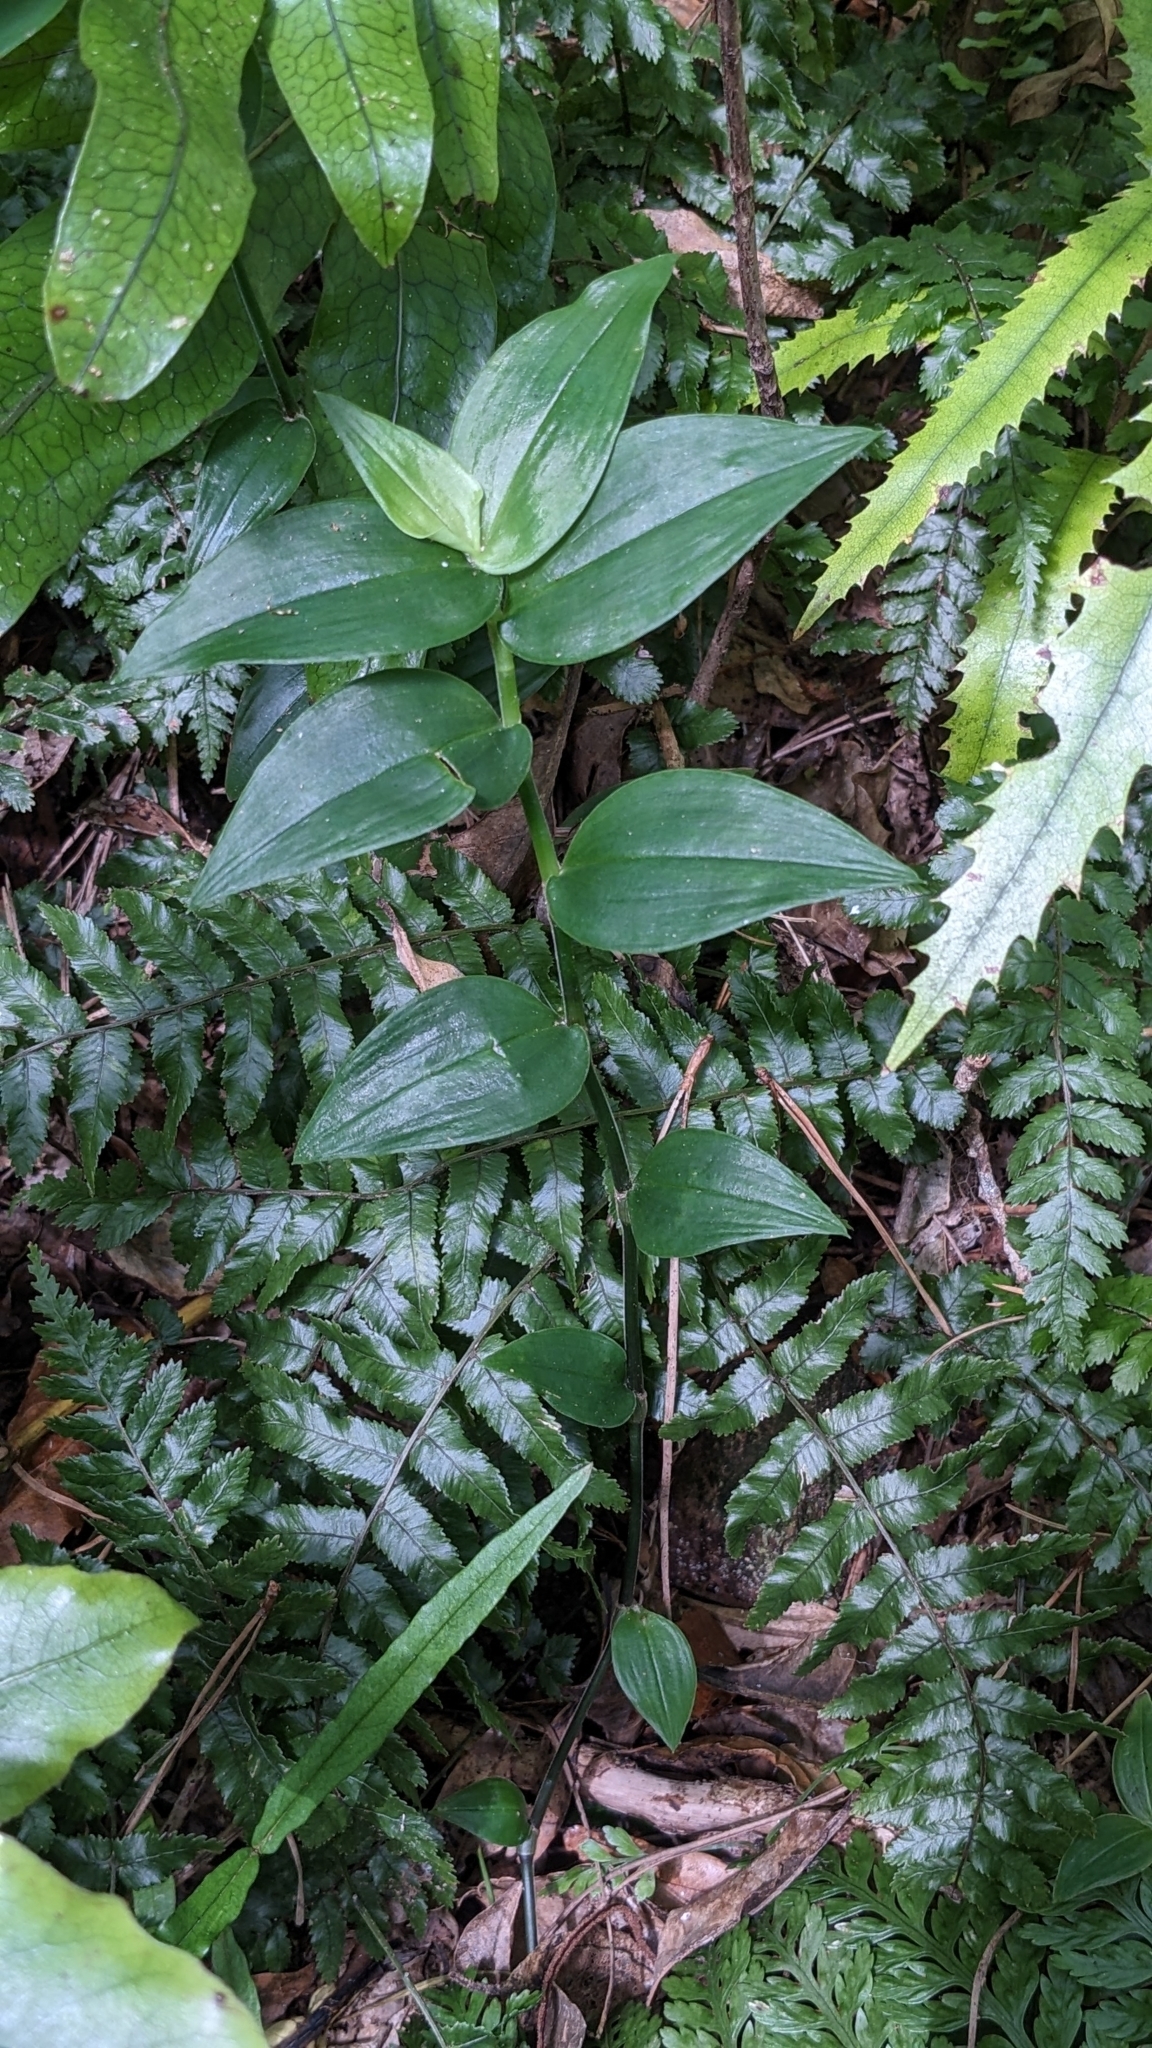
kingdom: Plantae
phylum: Tracheophyta
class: Liliopsida
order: Commelinales
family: Commelinaceae
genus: Tradescantia
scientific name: Tradescantia fluminensis
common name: Wandering-jew
